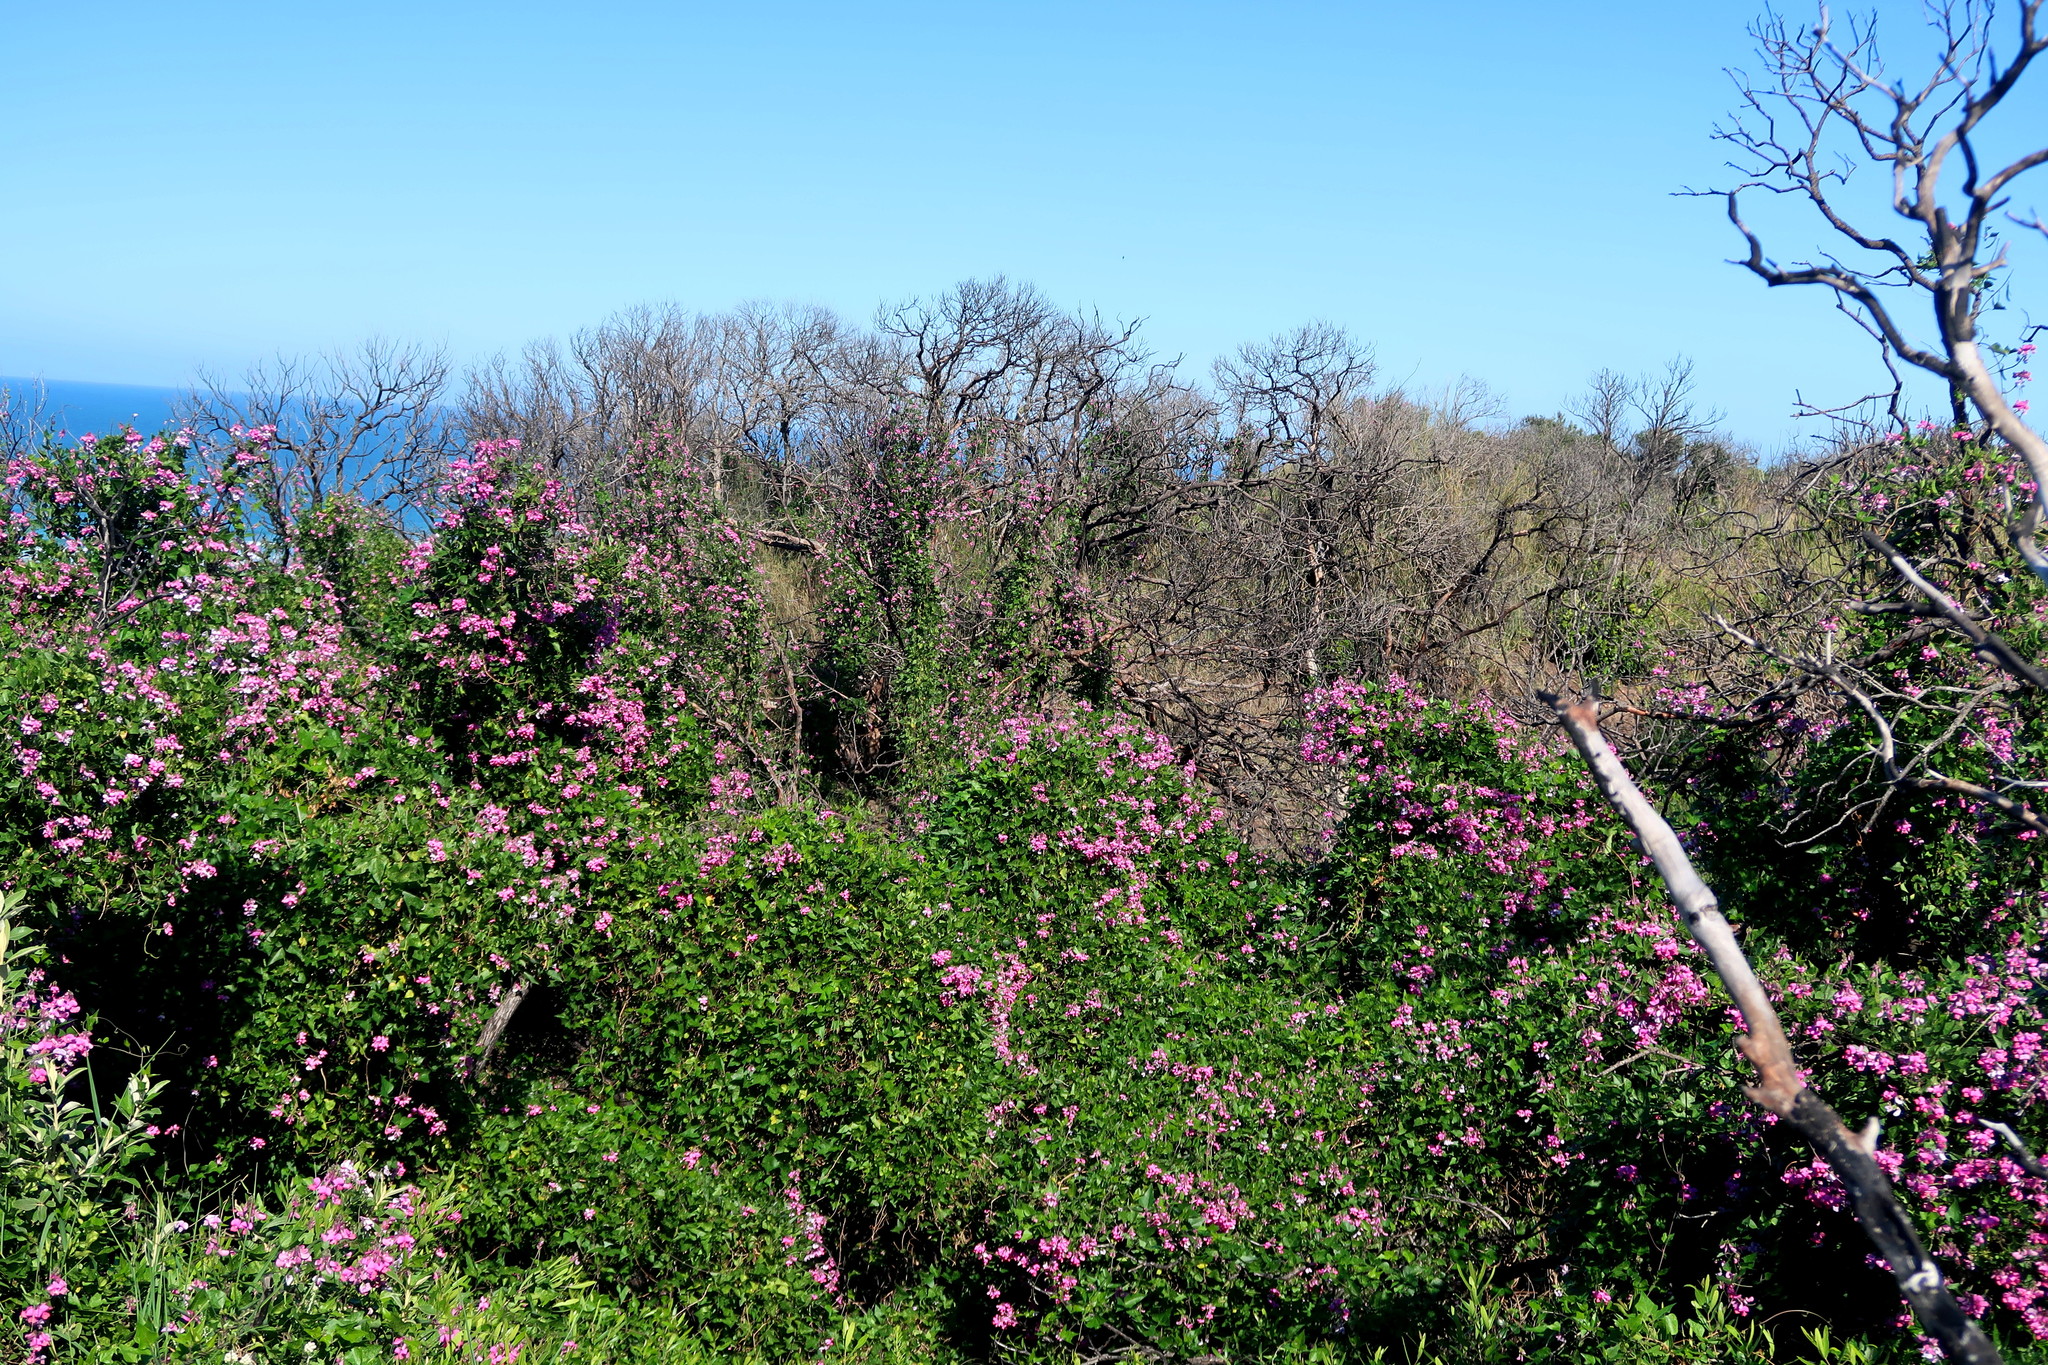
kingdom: Plantae
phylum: Tracheophyta
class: Magnoliopsida
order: Fabales
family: Fabaceae
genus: Dipogon
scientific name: Dipogon lignosus
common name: Okie bean
